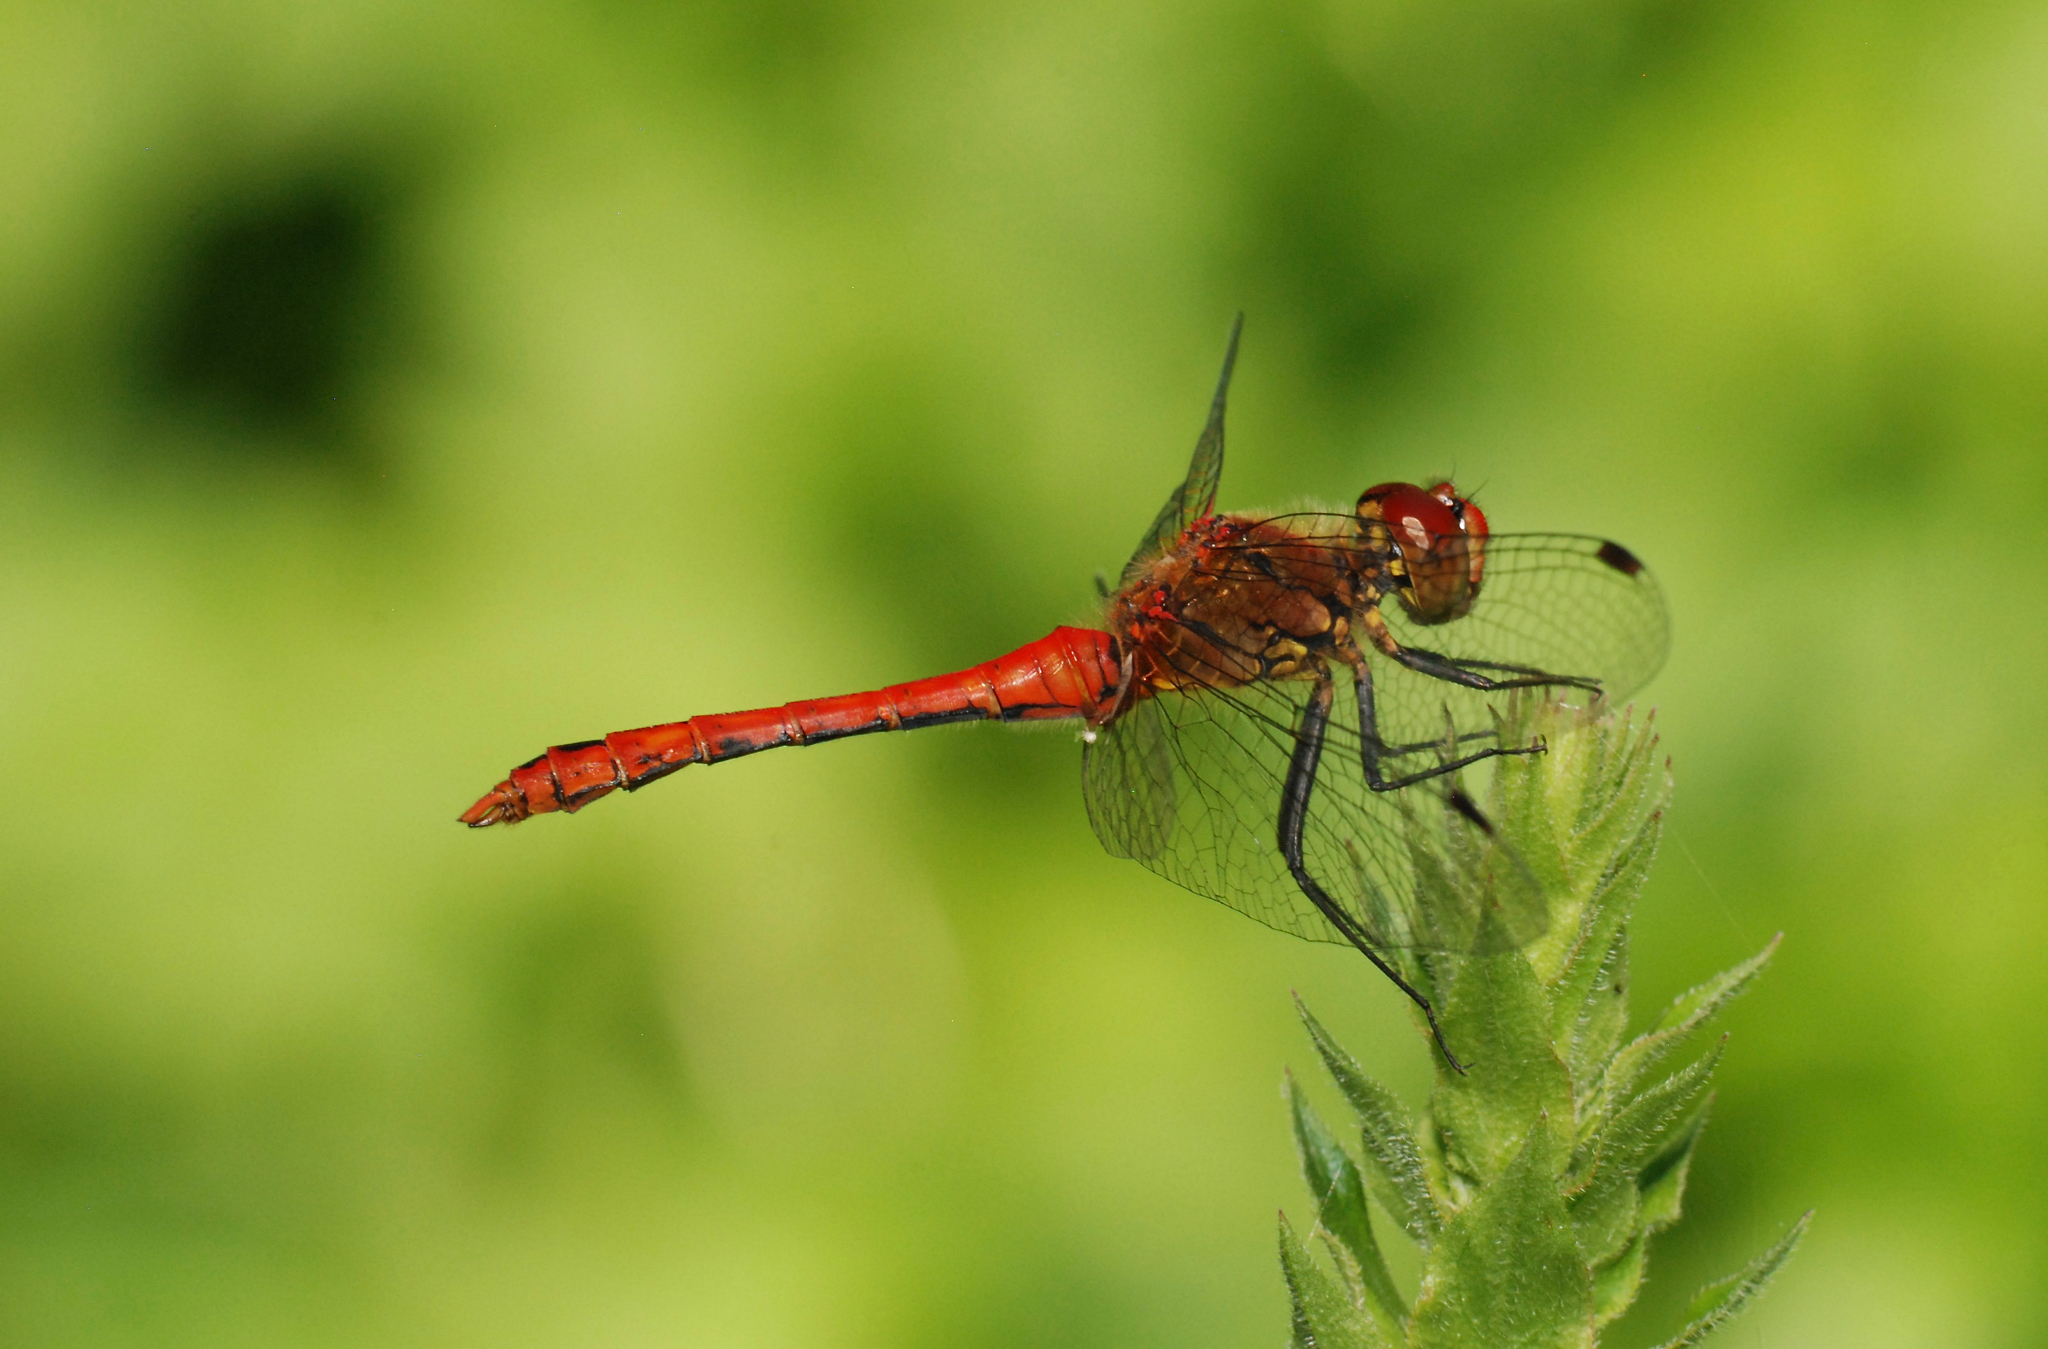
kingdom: Animalia
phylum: Arthropoda
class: Insecta
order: Odonata
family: Libellulidae
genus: Sympetrum
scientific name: Sympetrum sanguineum
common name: Ruddy darter
